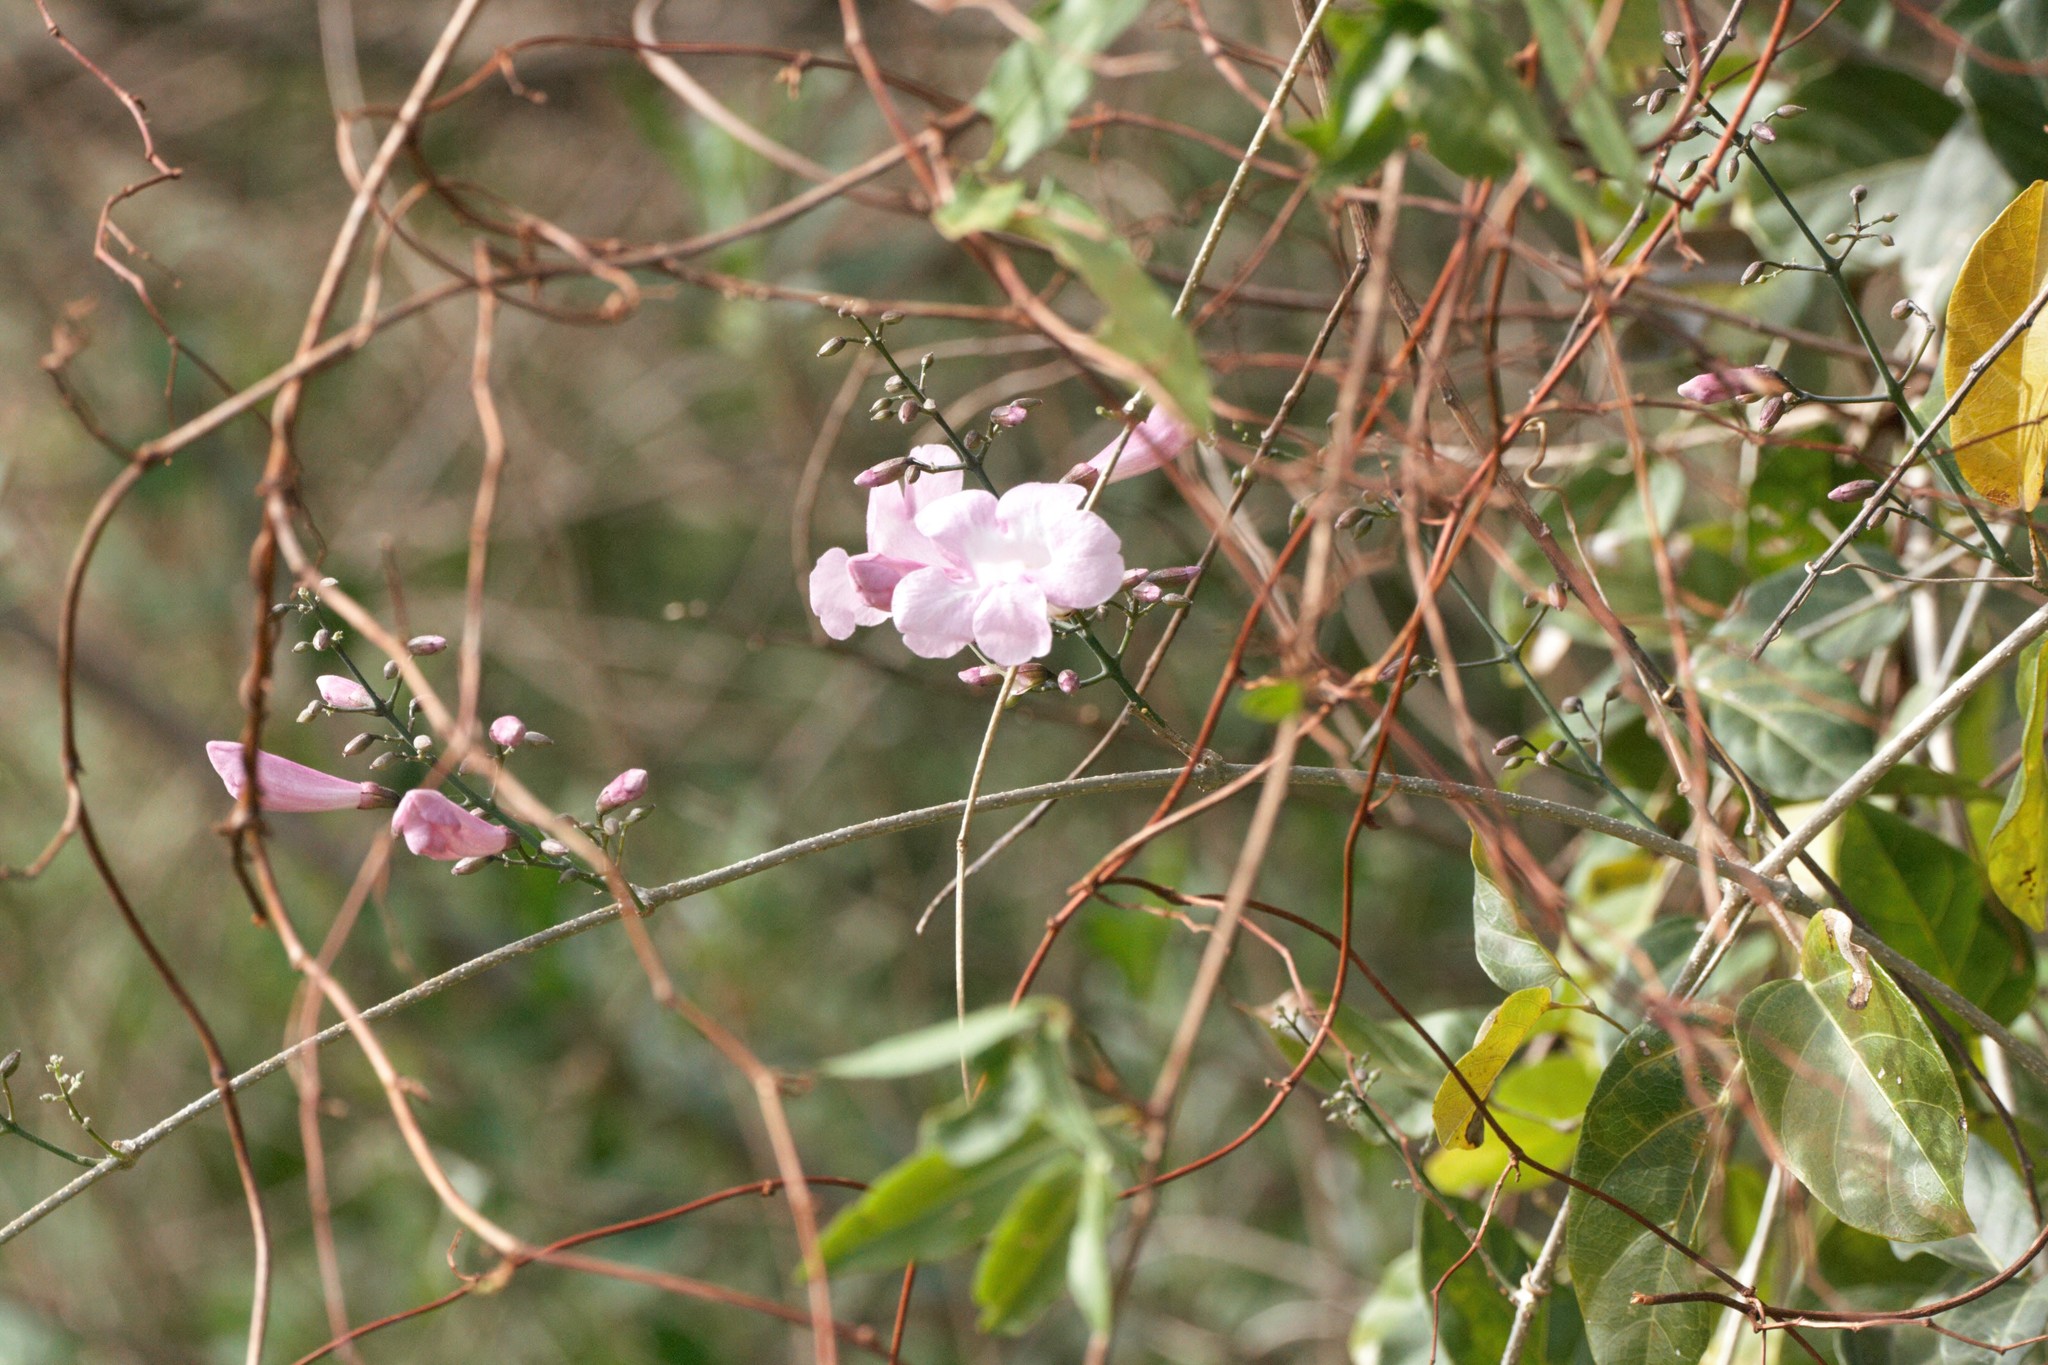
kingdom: Plantae
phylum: Tracheophyta
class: Magnoliopsida
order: Lamiales
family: Bignoniaceae
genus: Tanaecium
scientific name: Tanaecium dichotomum
